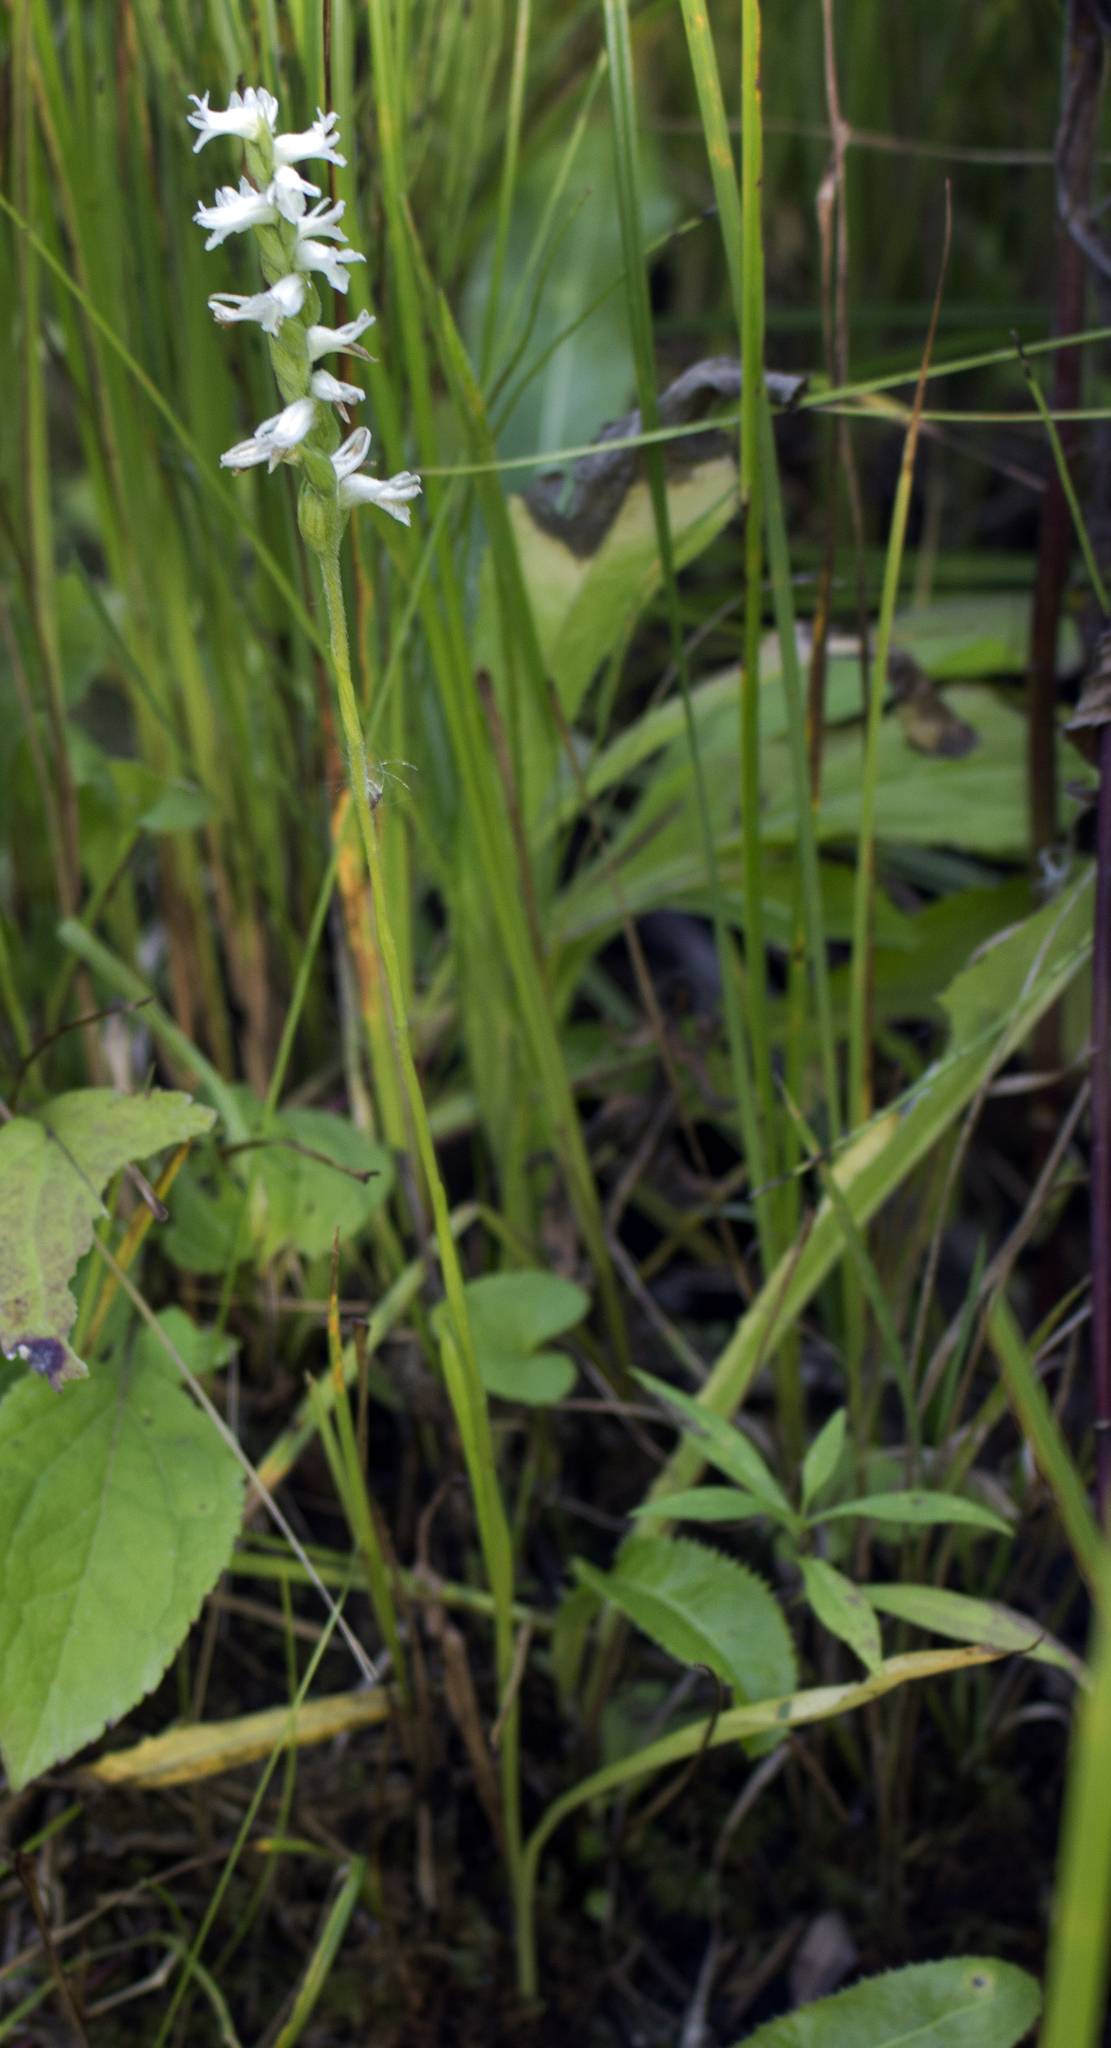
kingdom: Plantae
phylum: Tracheophyta
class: Liliopsida
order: Asparagales
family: Orchidaceae
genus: Spiranthes
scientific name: Spiranthes incurva
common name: Sphinx ladies'-tresses
